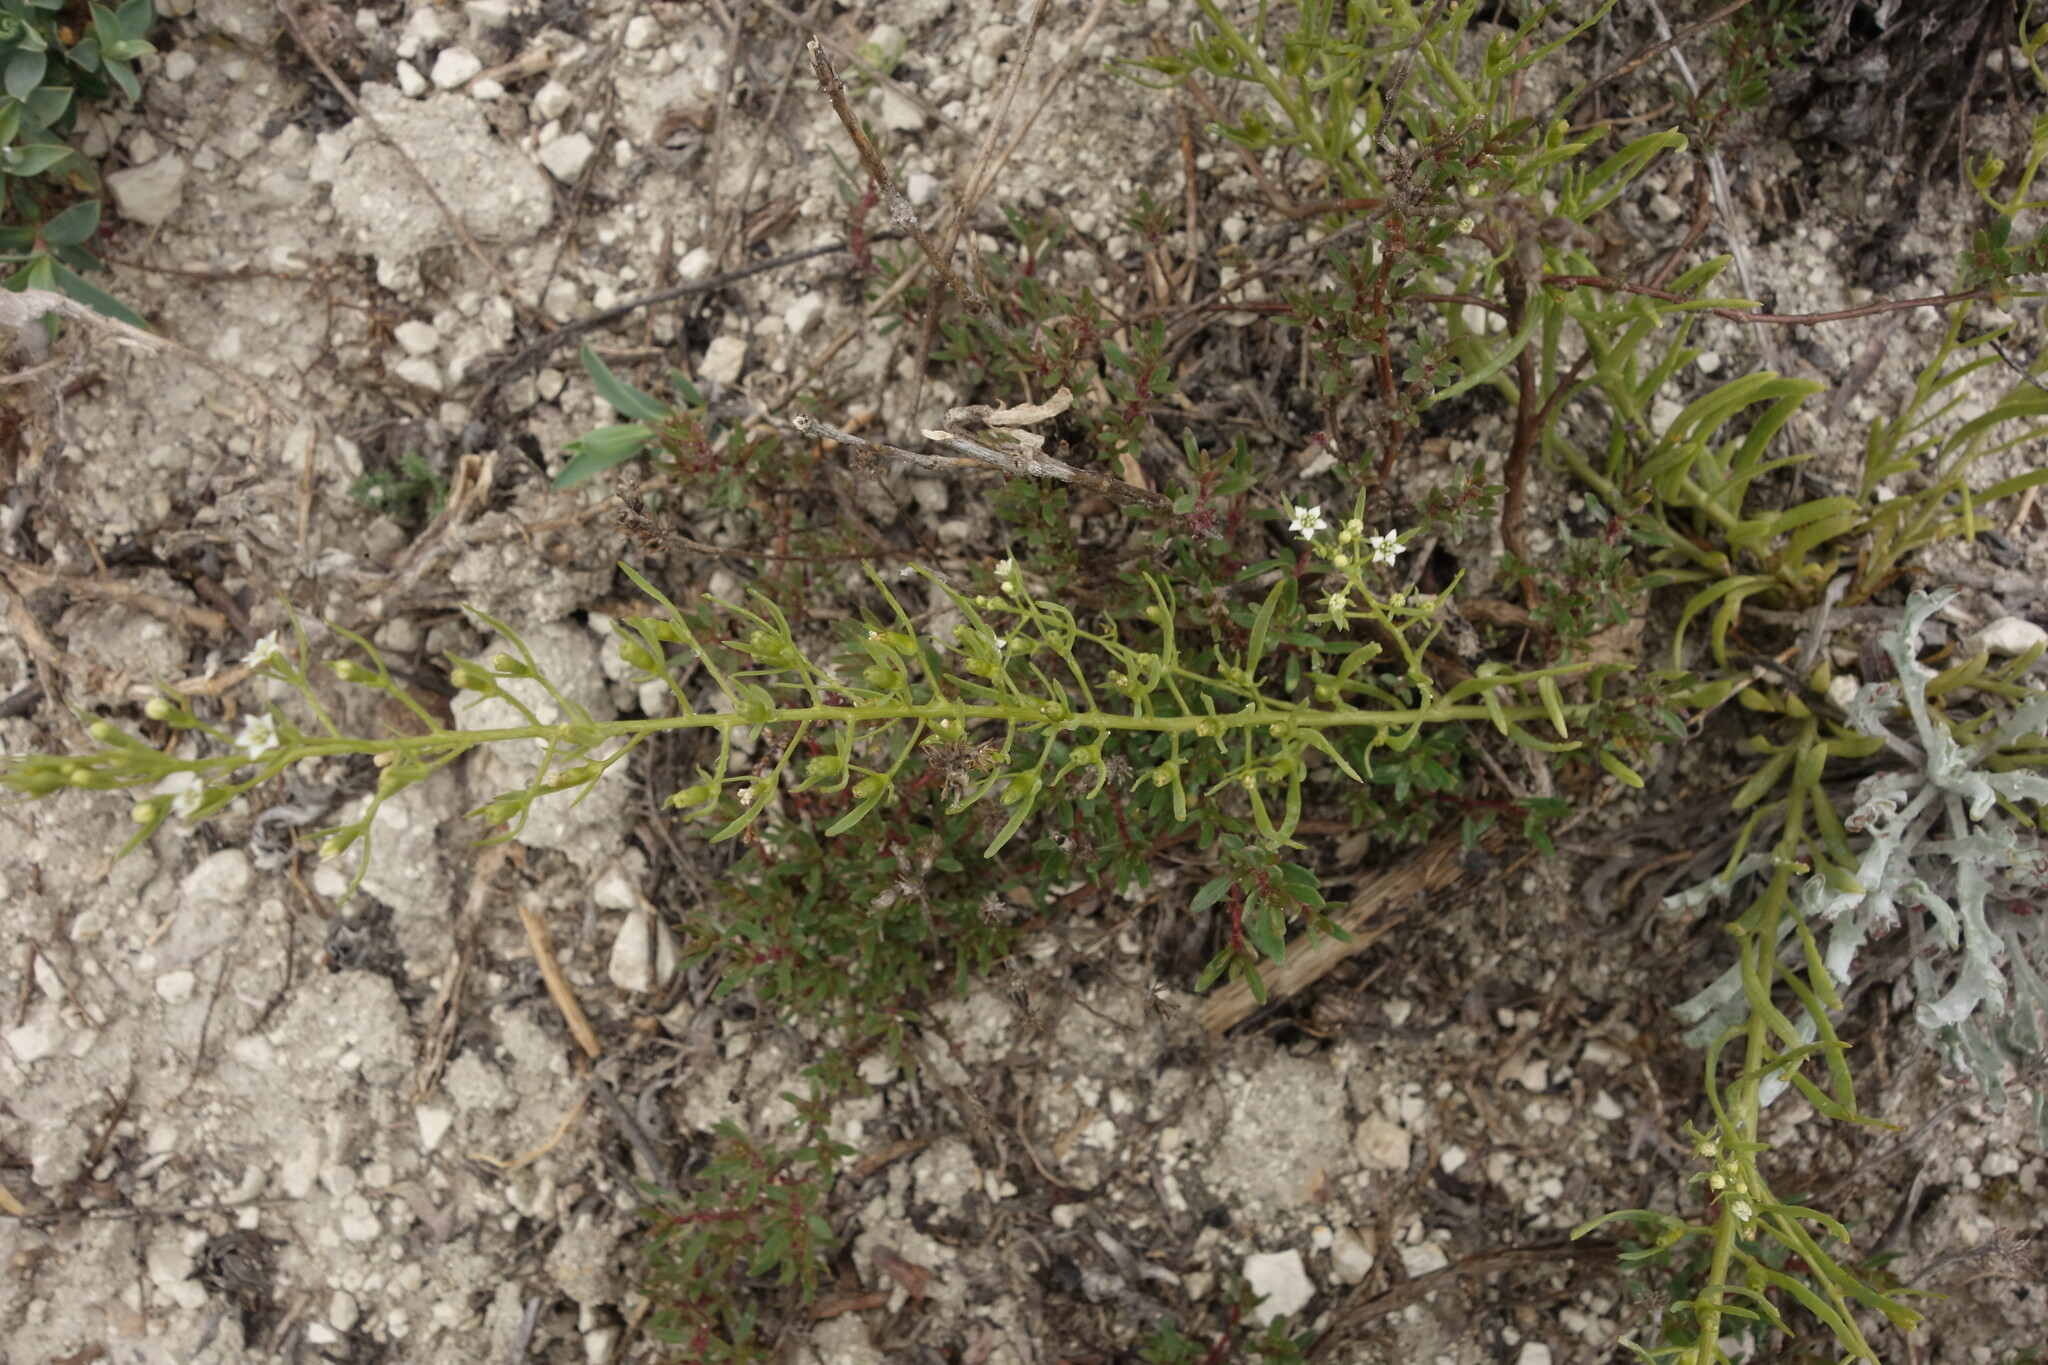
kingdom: Plantae
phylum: Tracheophyta
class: Magnoliopsida
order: Santalales
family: Thesiaceae
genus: Thesium
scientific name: Thesium ramosum
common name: Field thesium
